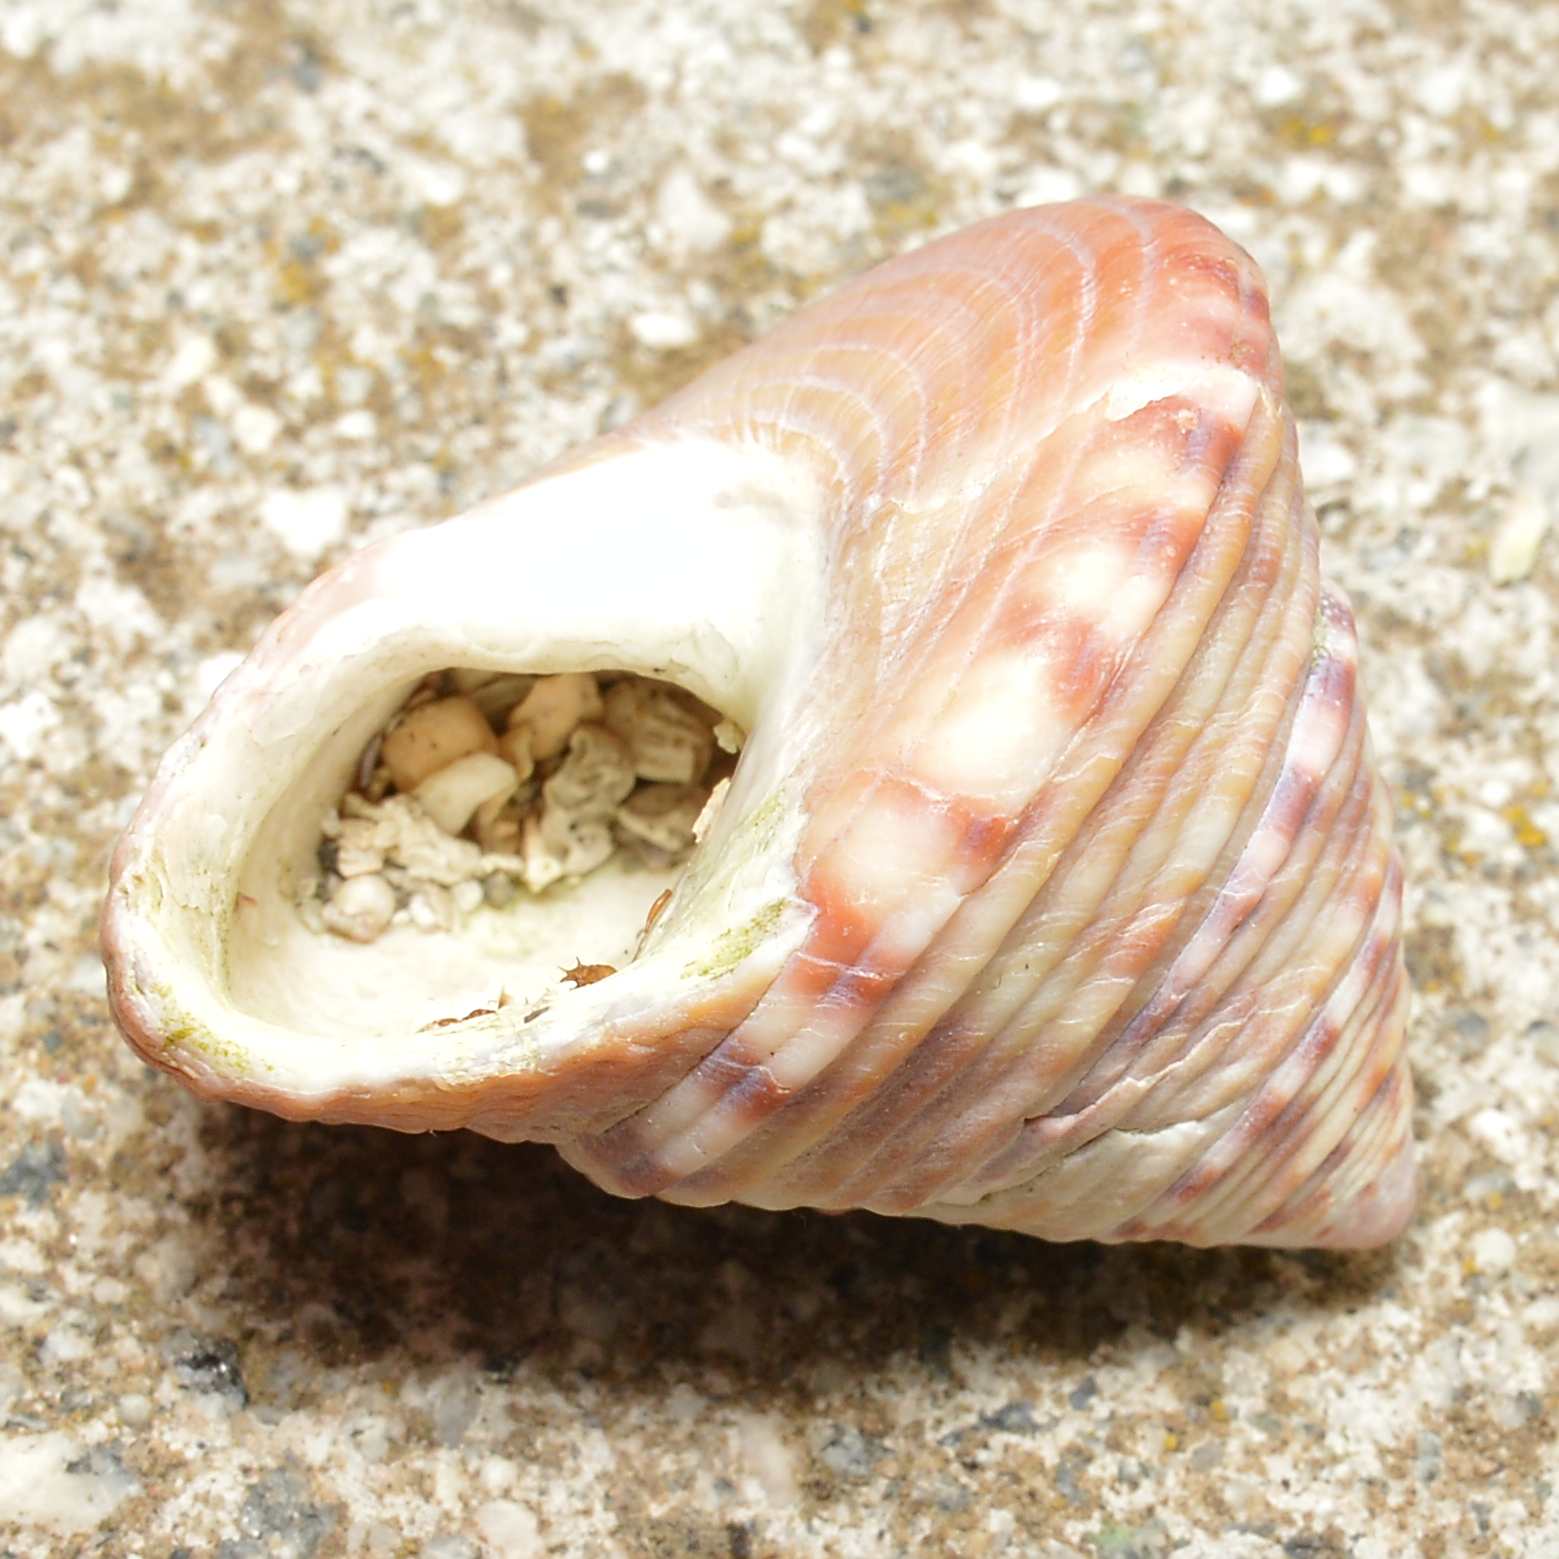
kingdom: Animalia
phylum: Mollusca
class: Gastropoda
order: Trochida
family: Calliostomatidae
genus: Calliostoma
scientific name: Calliostoma zizyphinum
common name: Painted top shell
